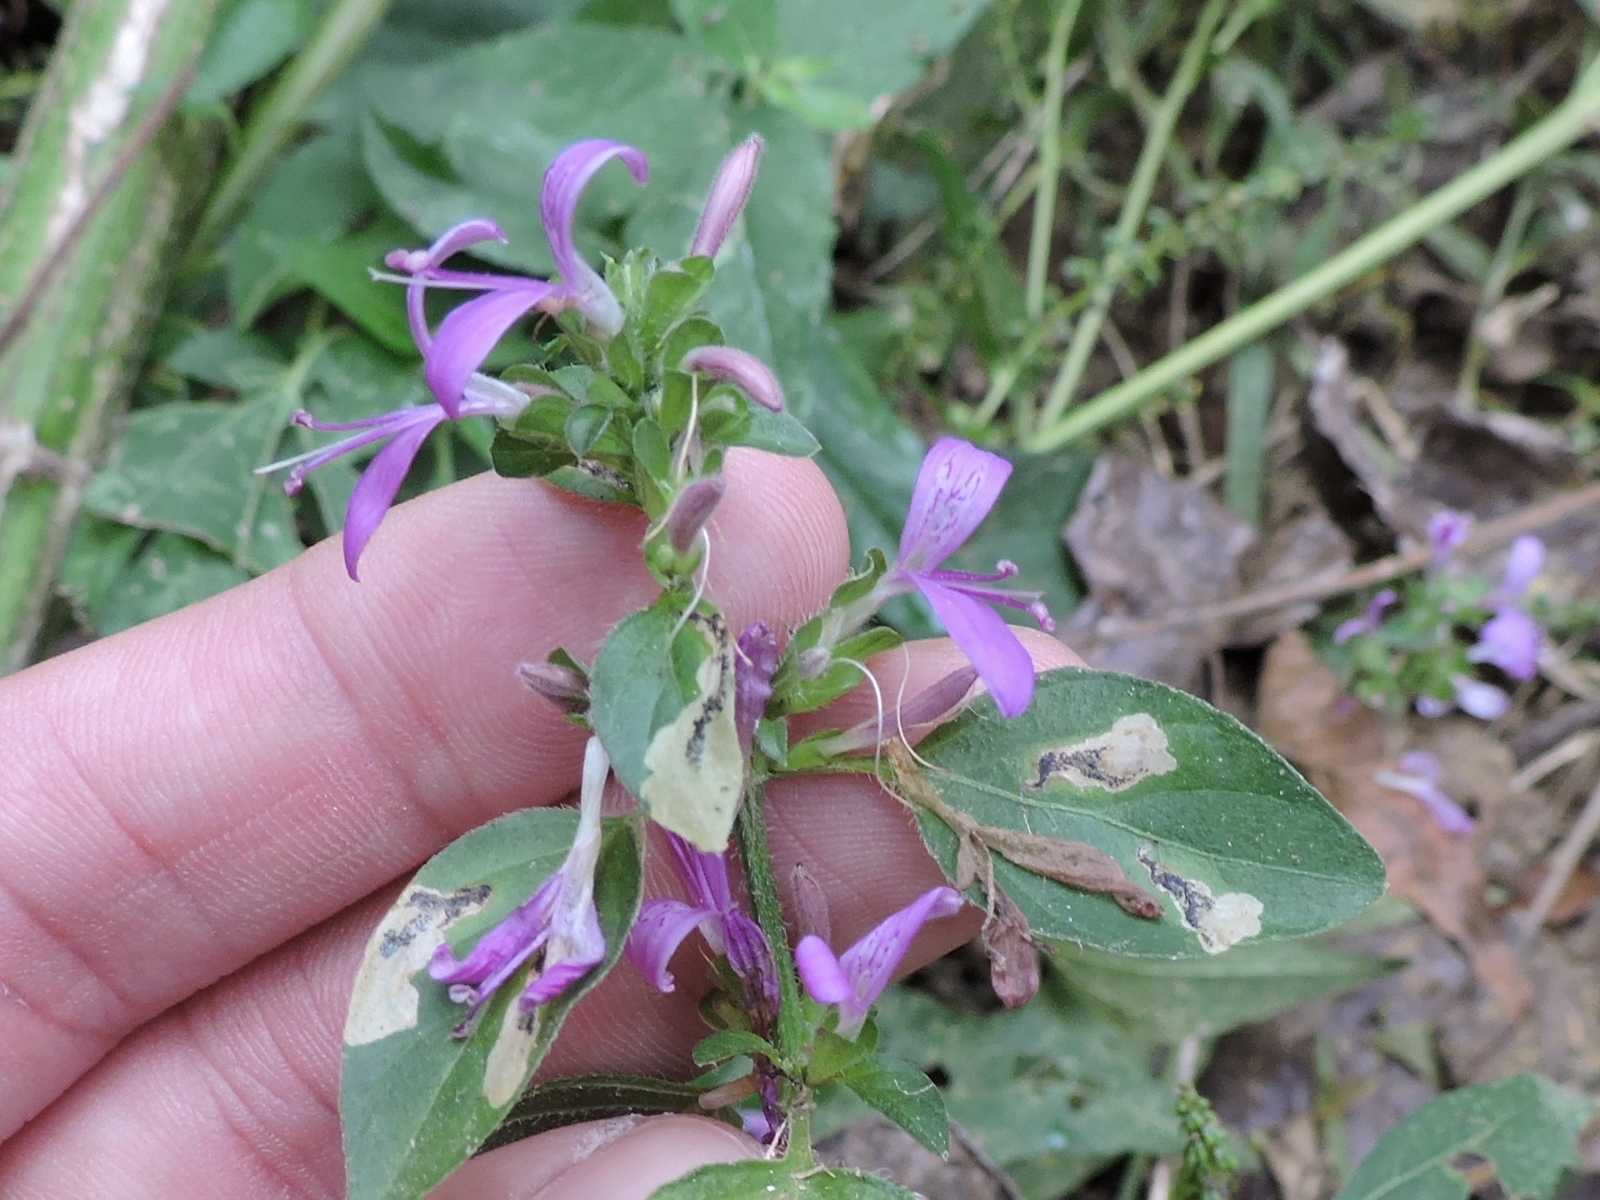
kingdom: Plantae
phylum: Tracheophyta
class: Magnoliopsida
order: Lamiales
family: Acanthaceae
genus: Dicliptera
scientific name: Dicliptera brachiata
